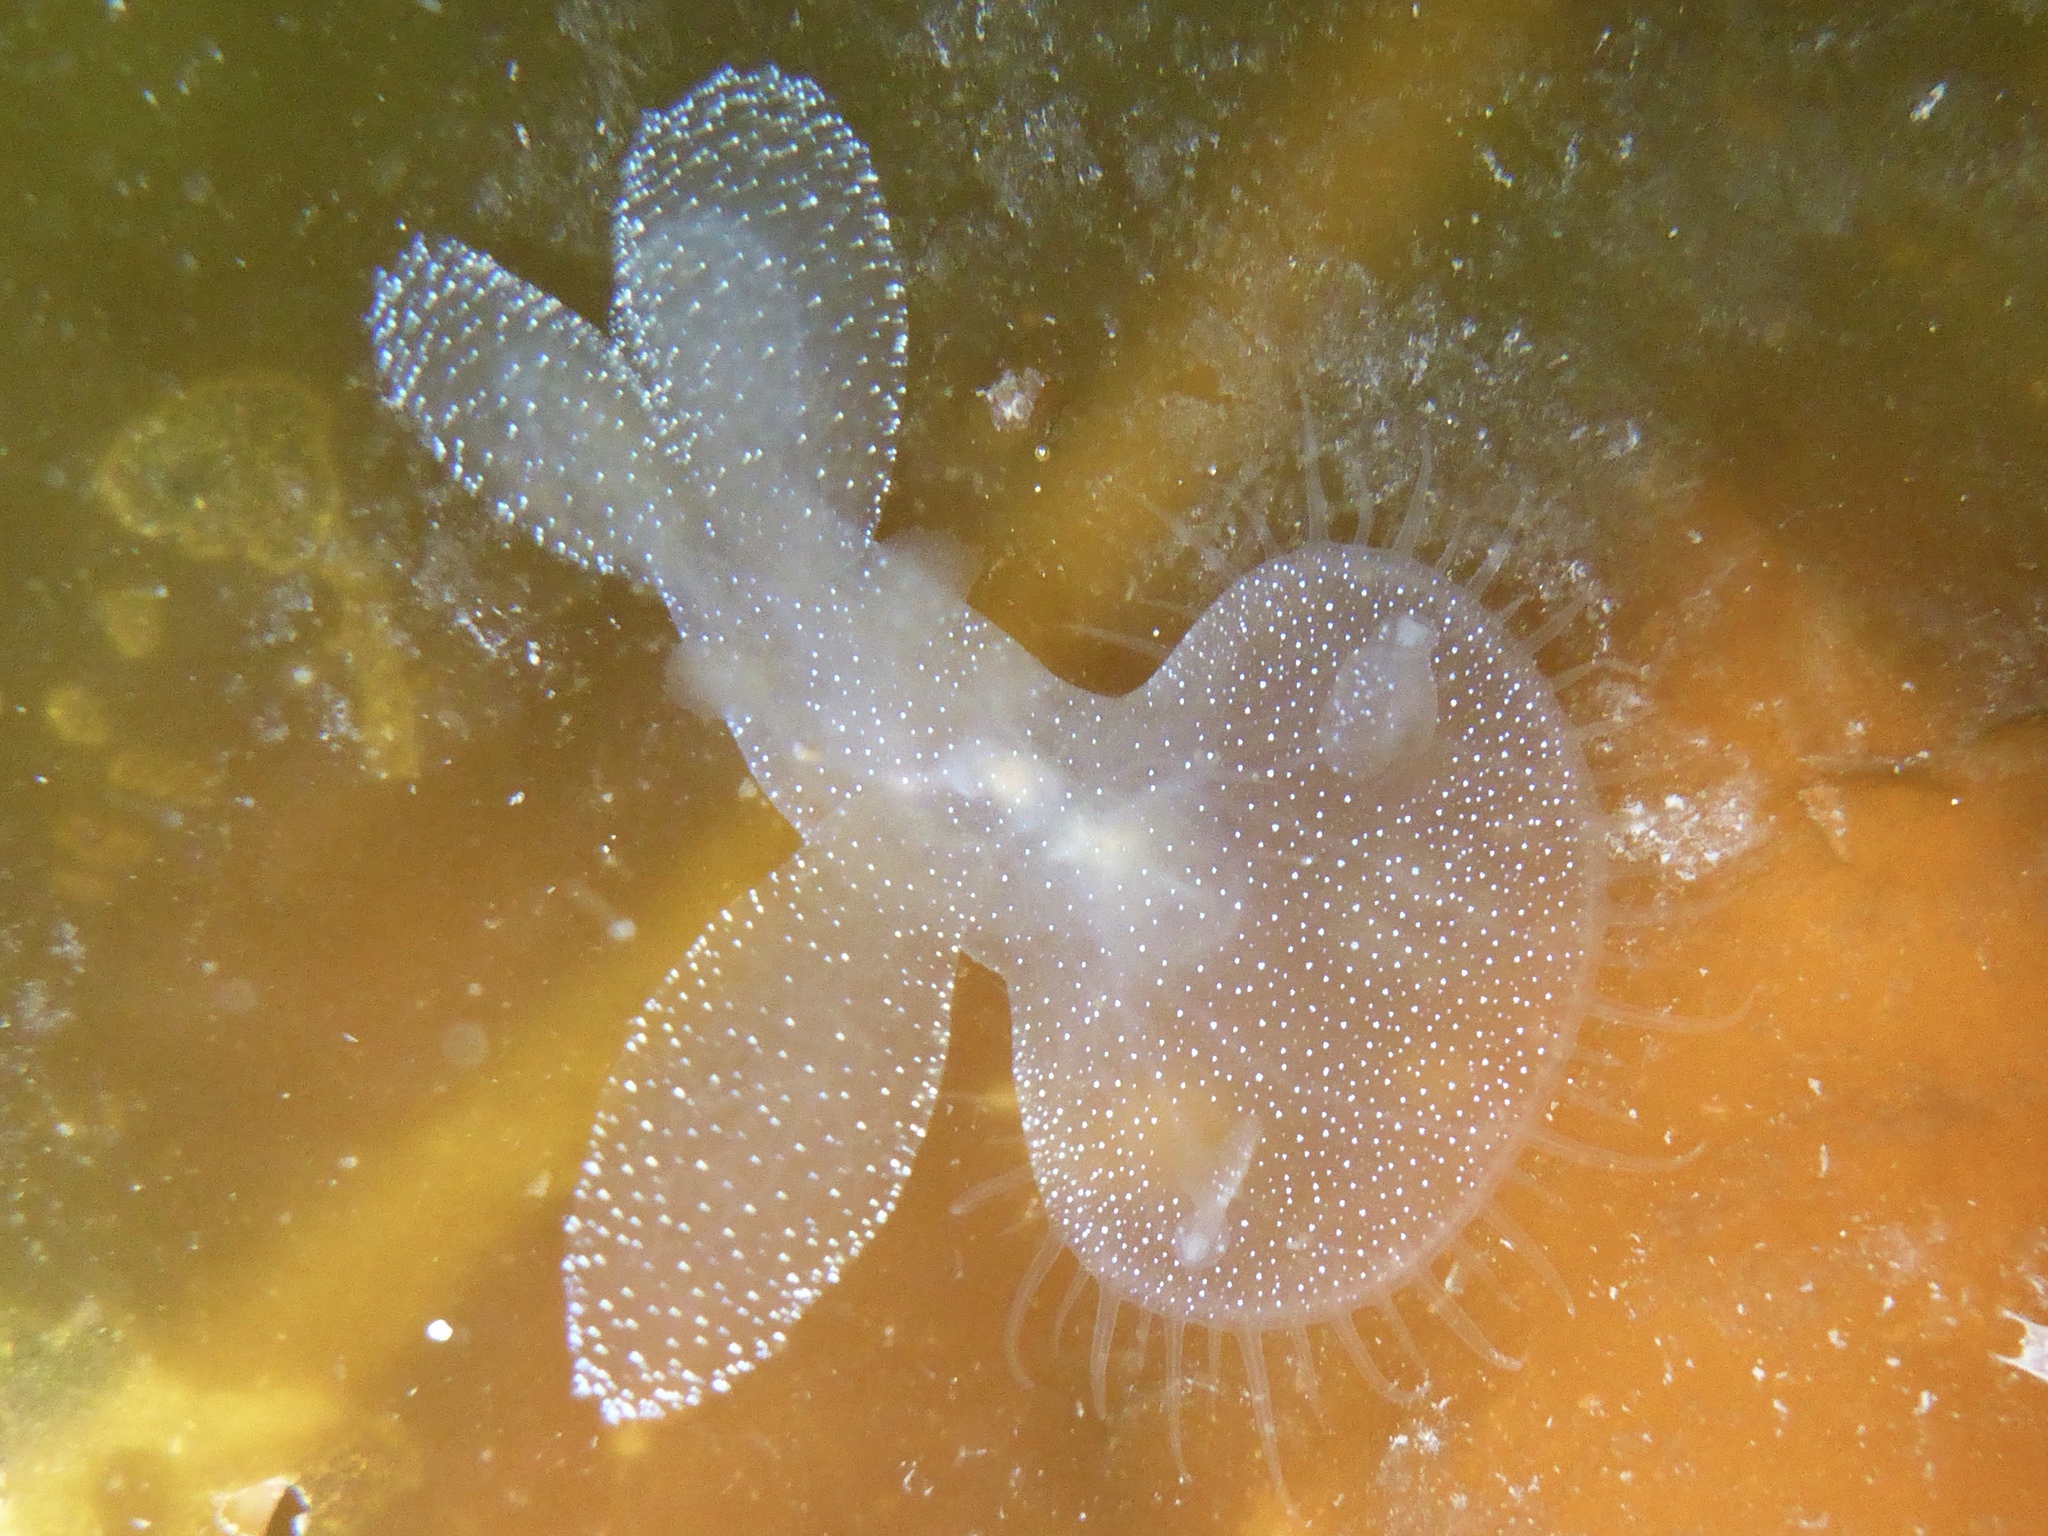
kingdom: Animalia
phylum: Mollusca
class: Gastropoda
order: Nudibranchia
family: Tethydidae
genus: Melibe
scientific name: Melibe leonina
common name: Lion nudibranch
